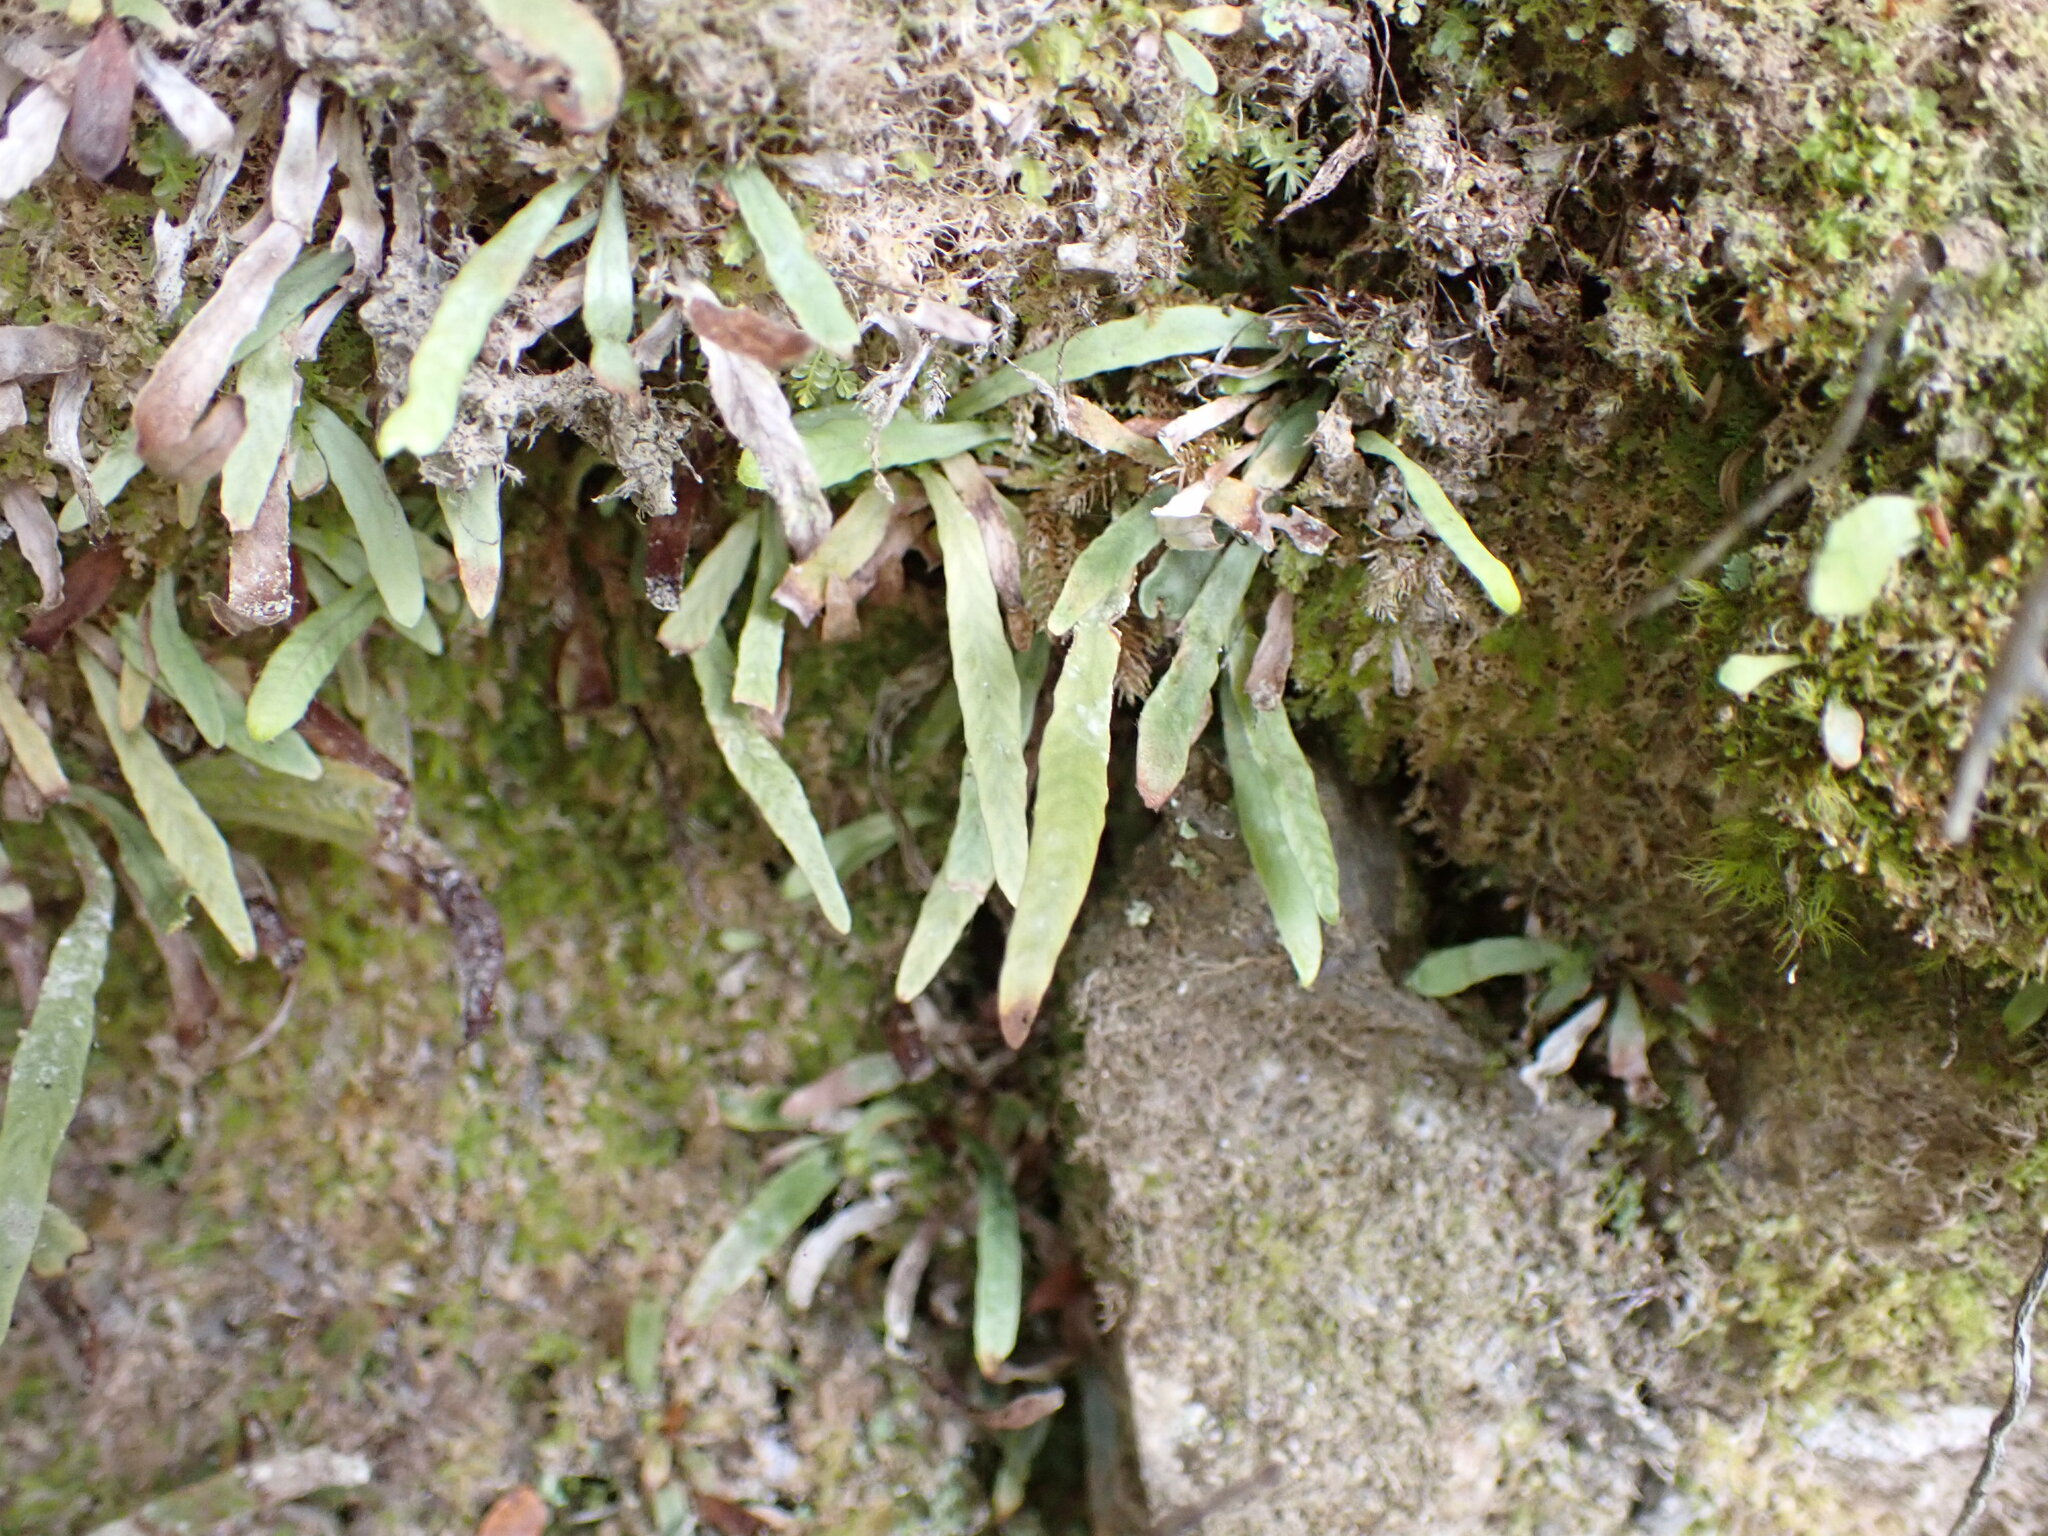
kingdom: Plantae
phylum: Tracheophyta
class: Polypodiopsida
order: Polypodiales
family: Polypodiaceae
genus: Notogrammitis
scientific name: Notogrammitis billardierei
